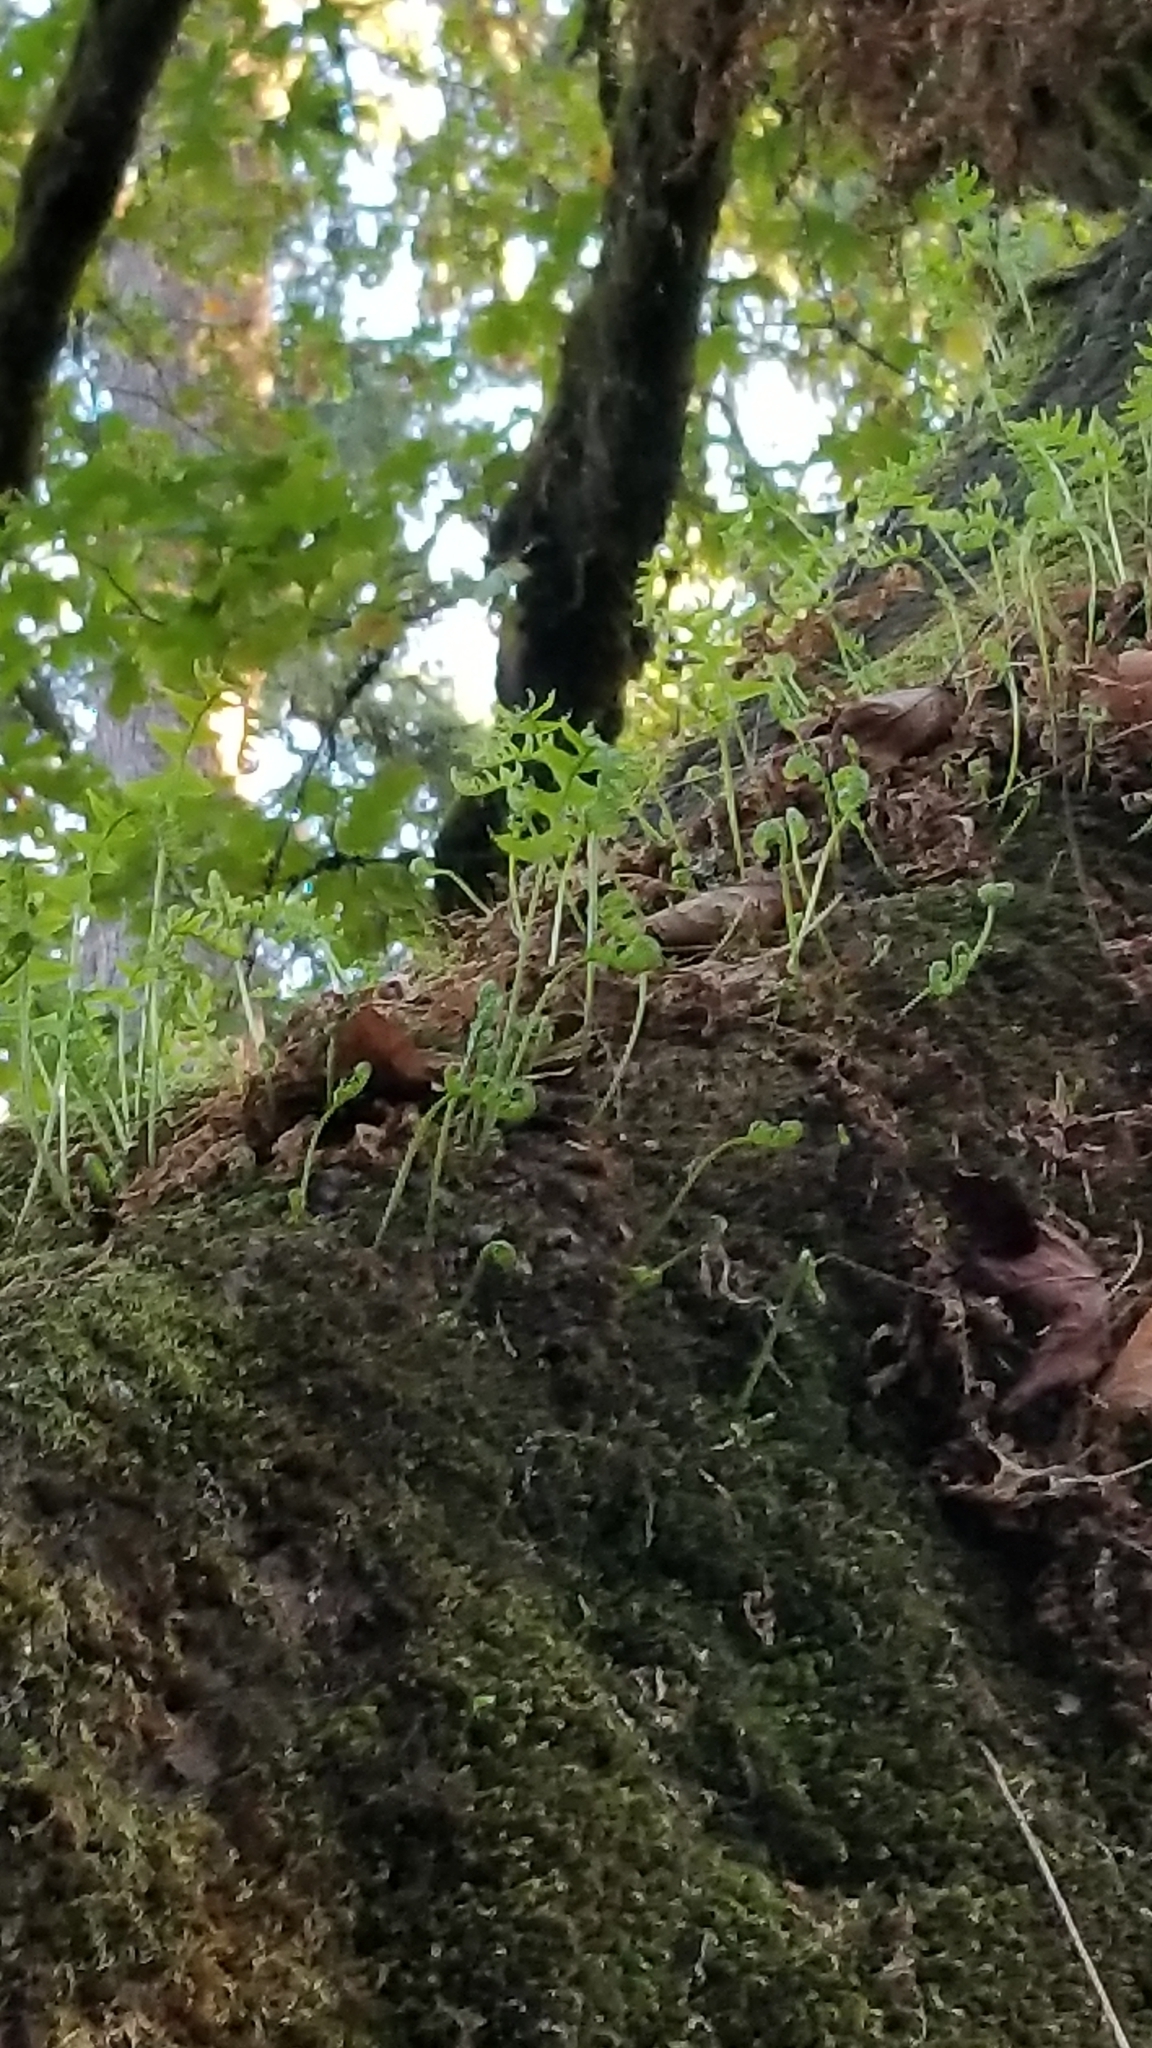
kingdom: Plantae
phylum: Tracheophyta
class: Polypodiopsida
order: Polypodiales
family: Polypodiaceae
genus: Polypodium
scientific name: Polypodium glycyrrhiza
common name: Licorice fern
